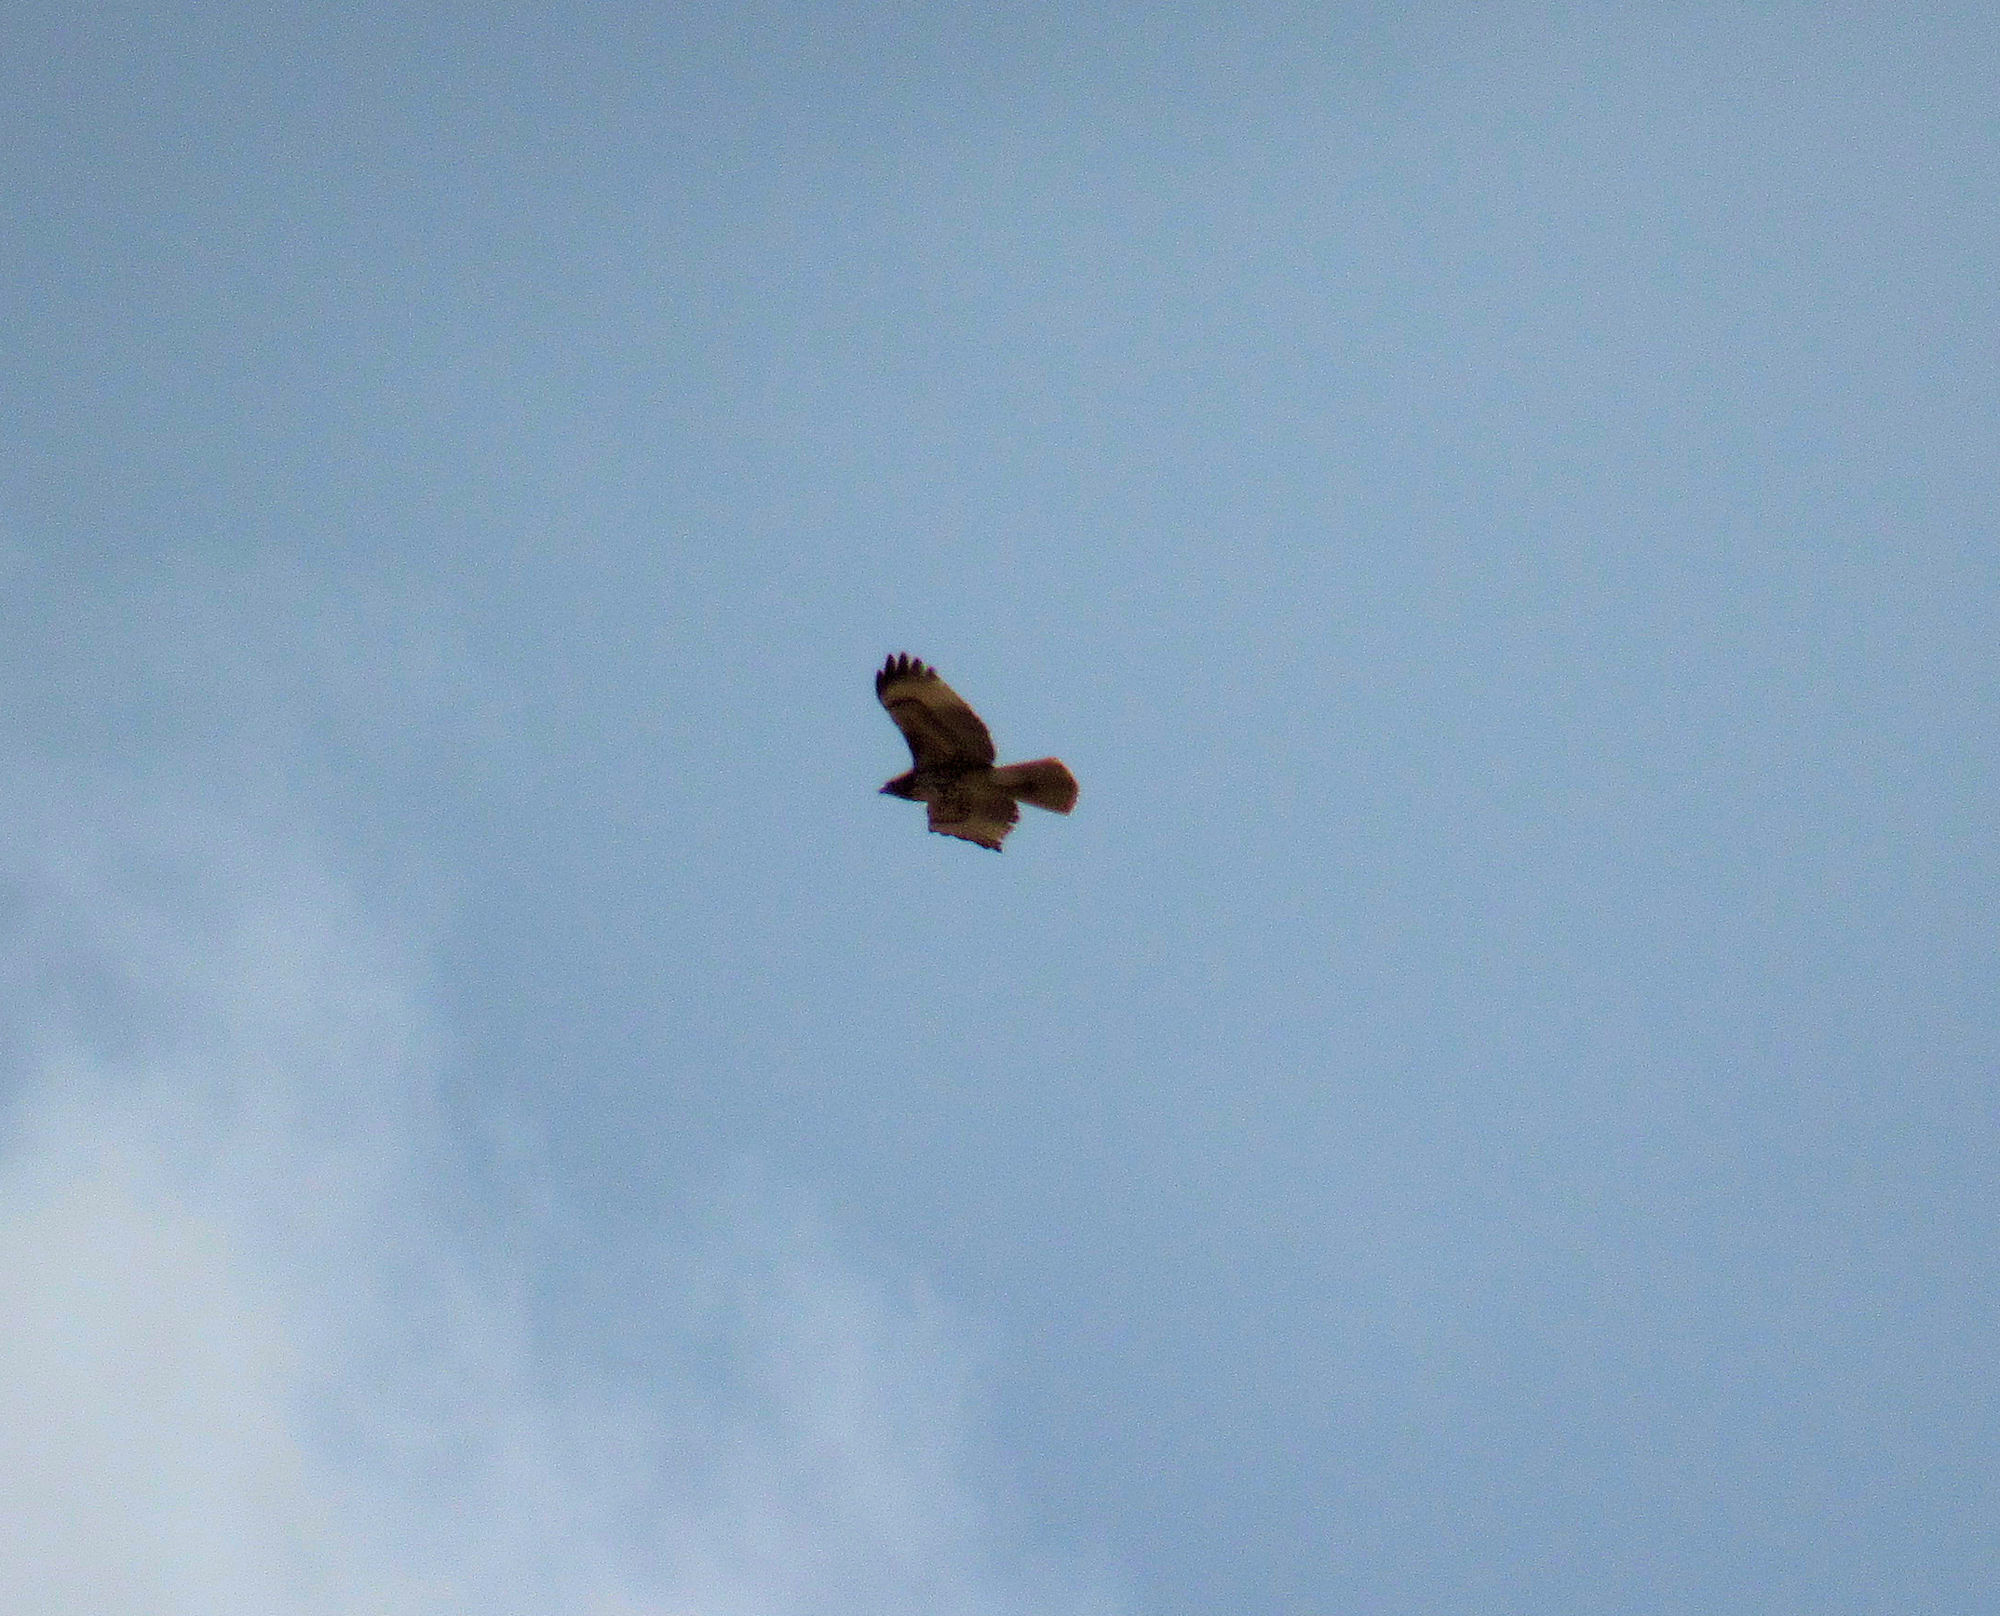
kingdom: Animalia
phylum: Chordata
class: Aves
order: Accipitriformes
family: Accipitridae
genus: Buteo
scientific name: Buteo jamaicensis
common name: Red-tailed hawk
